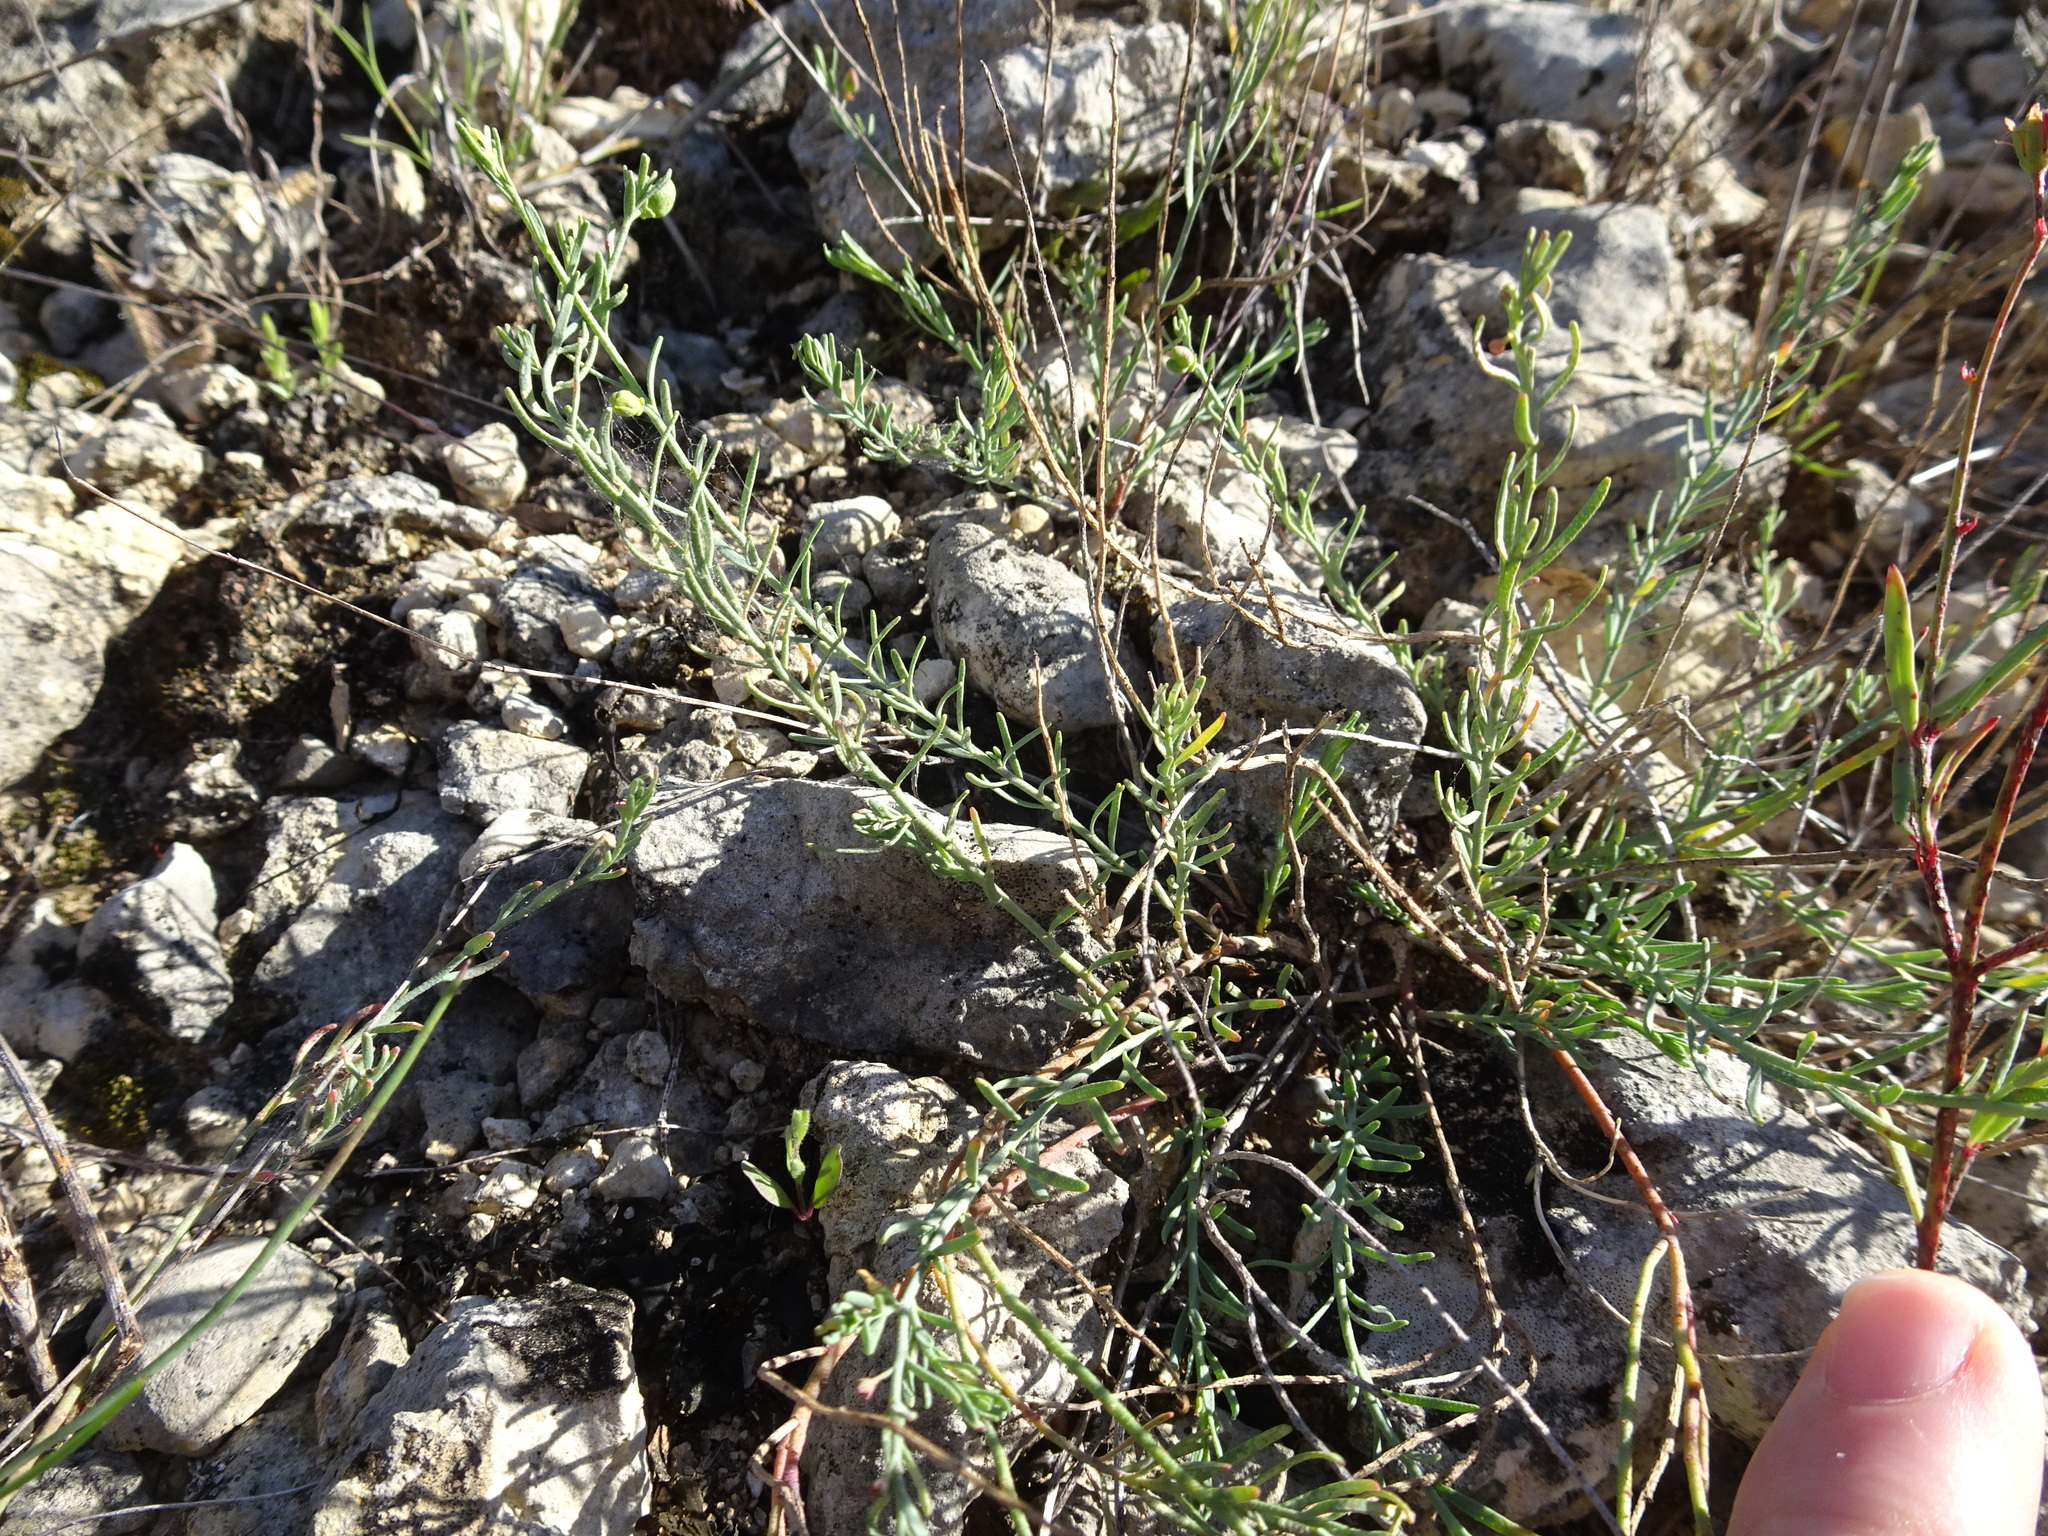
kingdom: Plantae
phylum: Tracheophyta
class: Magnoliopsida
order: Sapindales
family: Rutaceae
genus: Thamnosma
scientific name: Thamnosma texana
